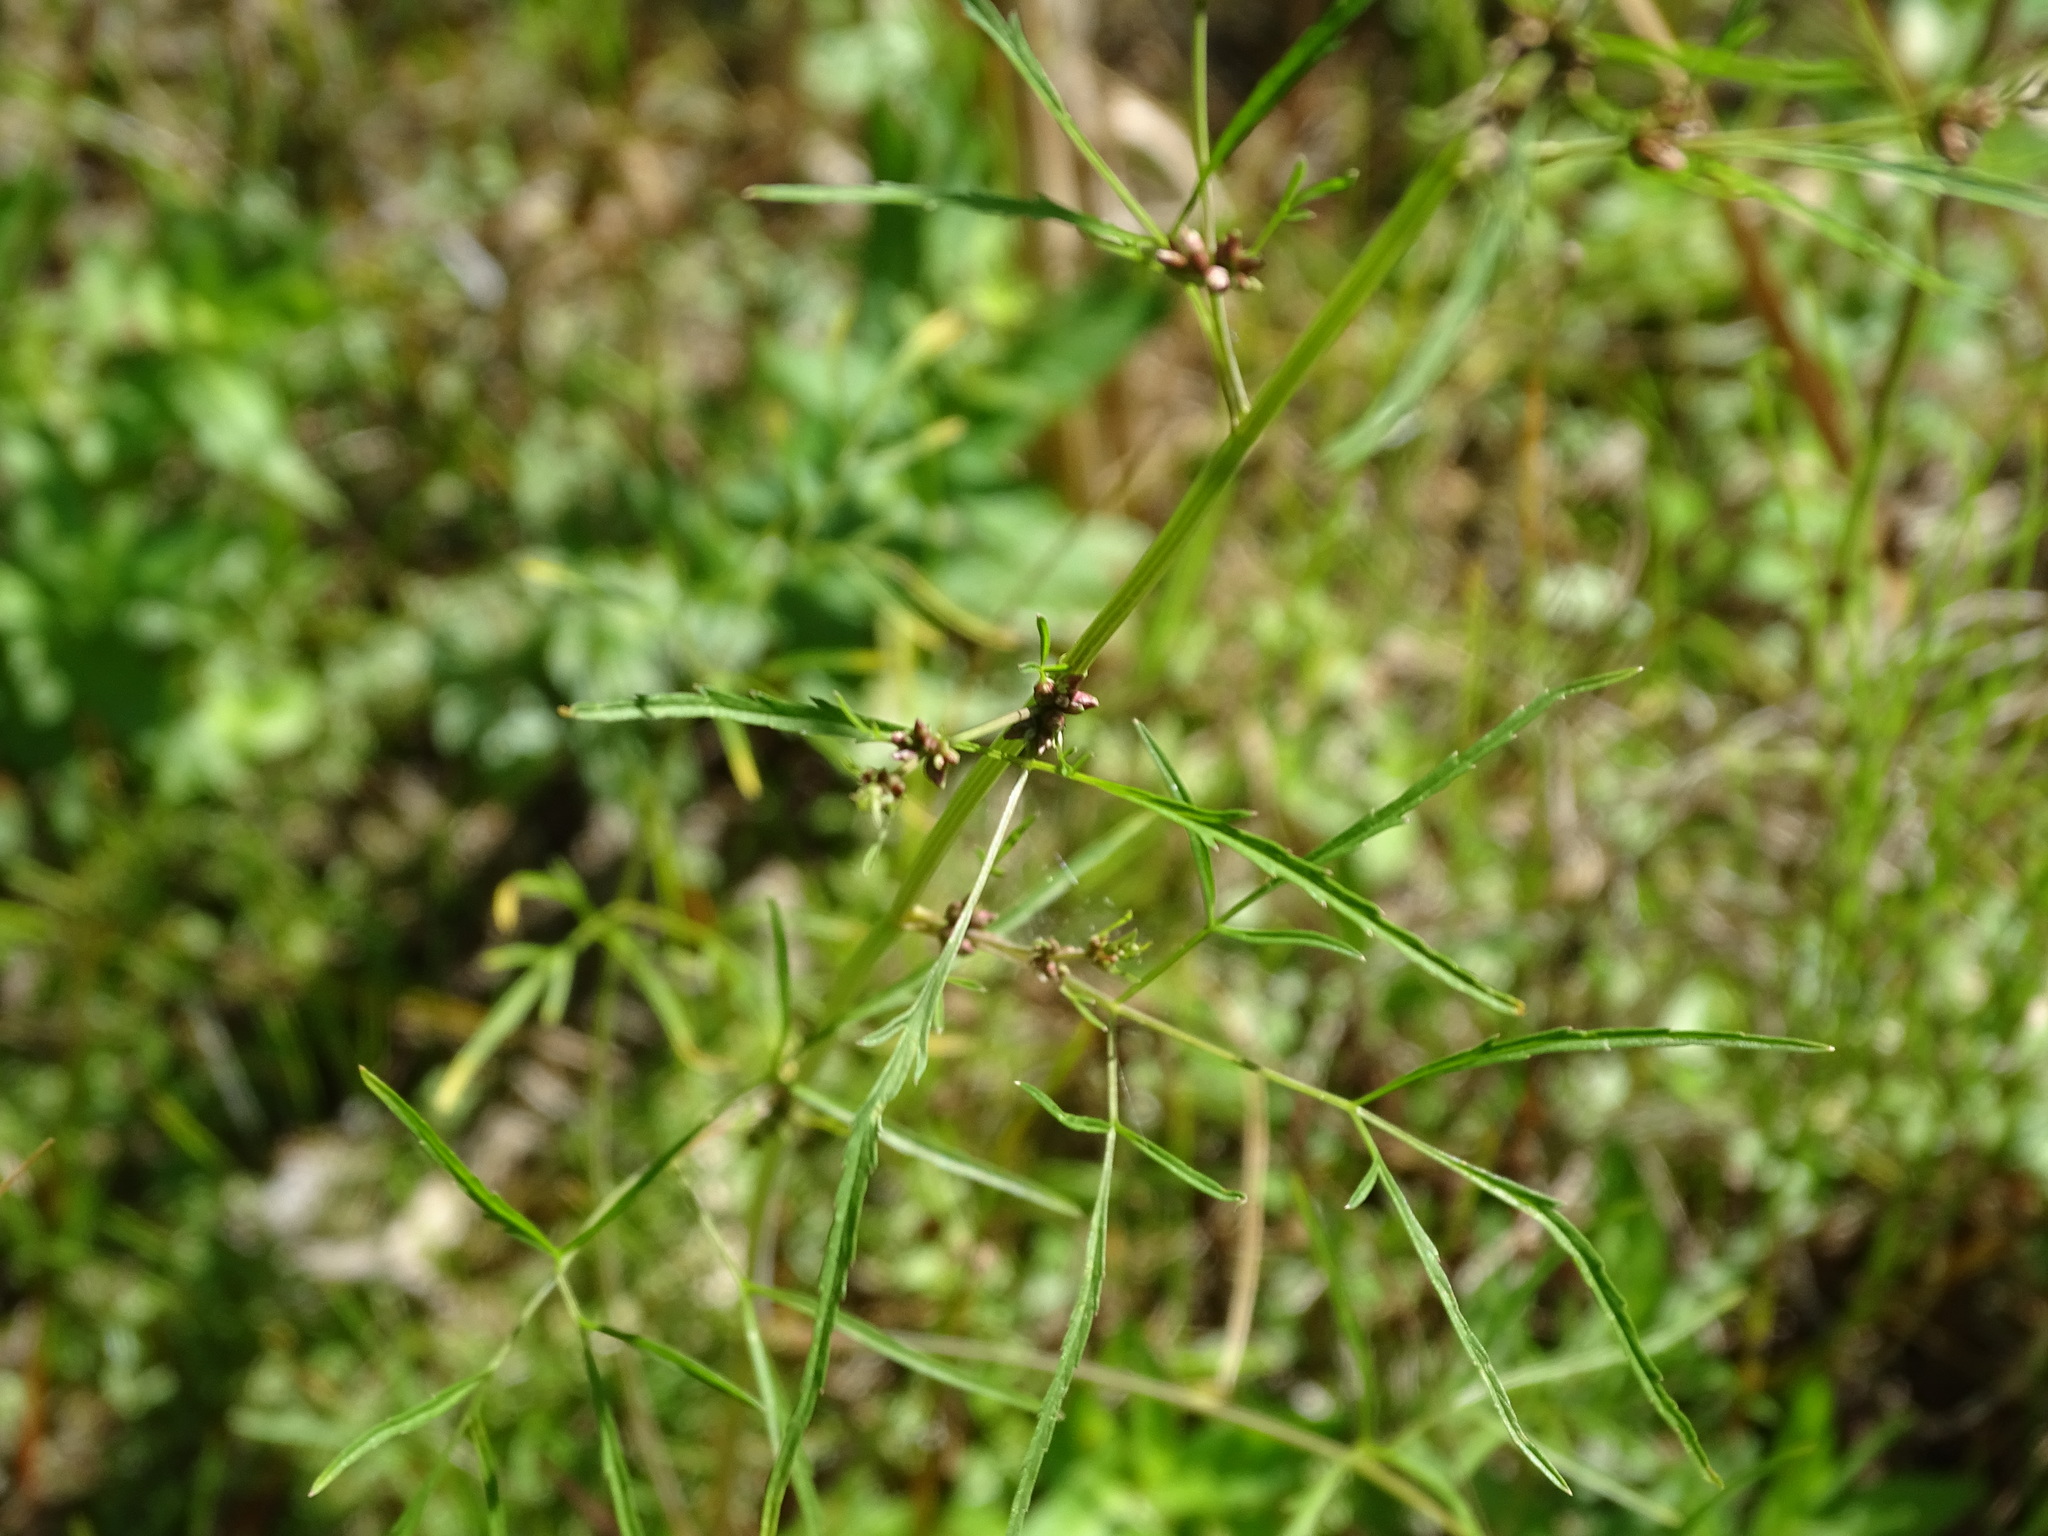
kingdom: Plantae
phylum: Tracheophyta
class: Magnoliopsida
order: Apiales
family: Apiaceae
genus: Cicuta
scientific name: Cicuta bulbifera
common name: Bulb-bearing water-hemlock
